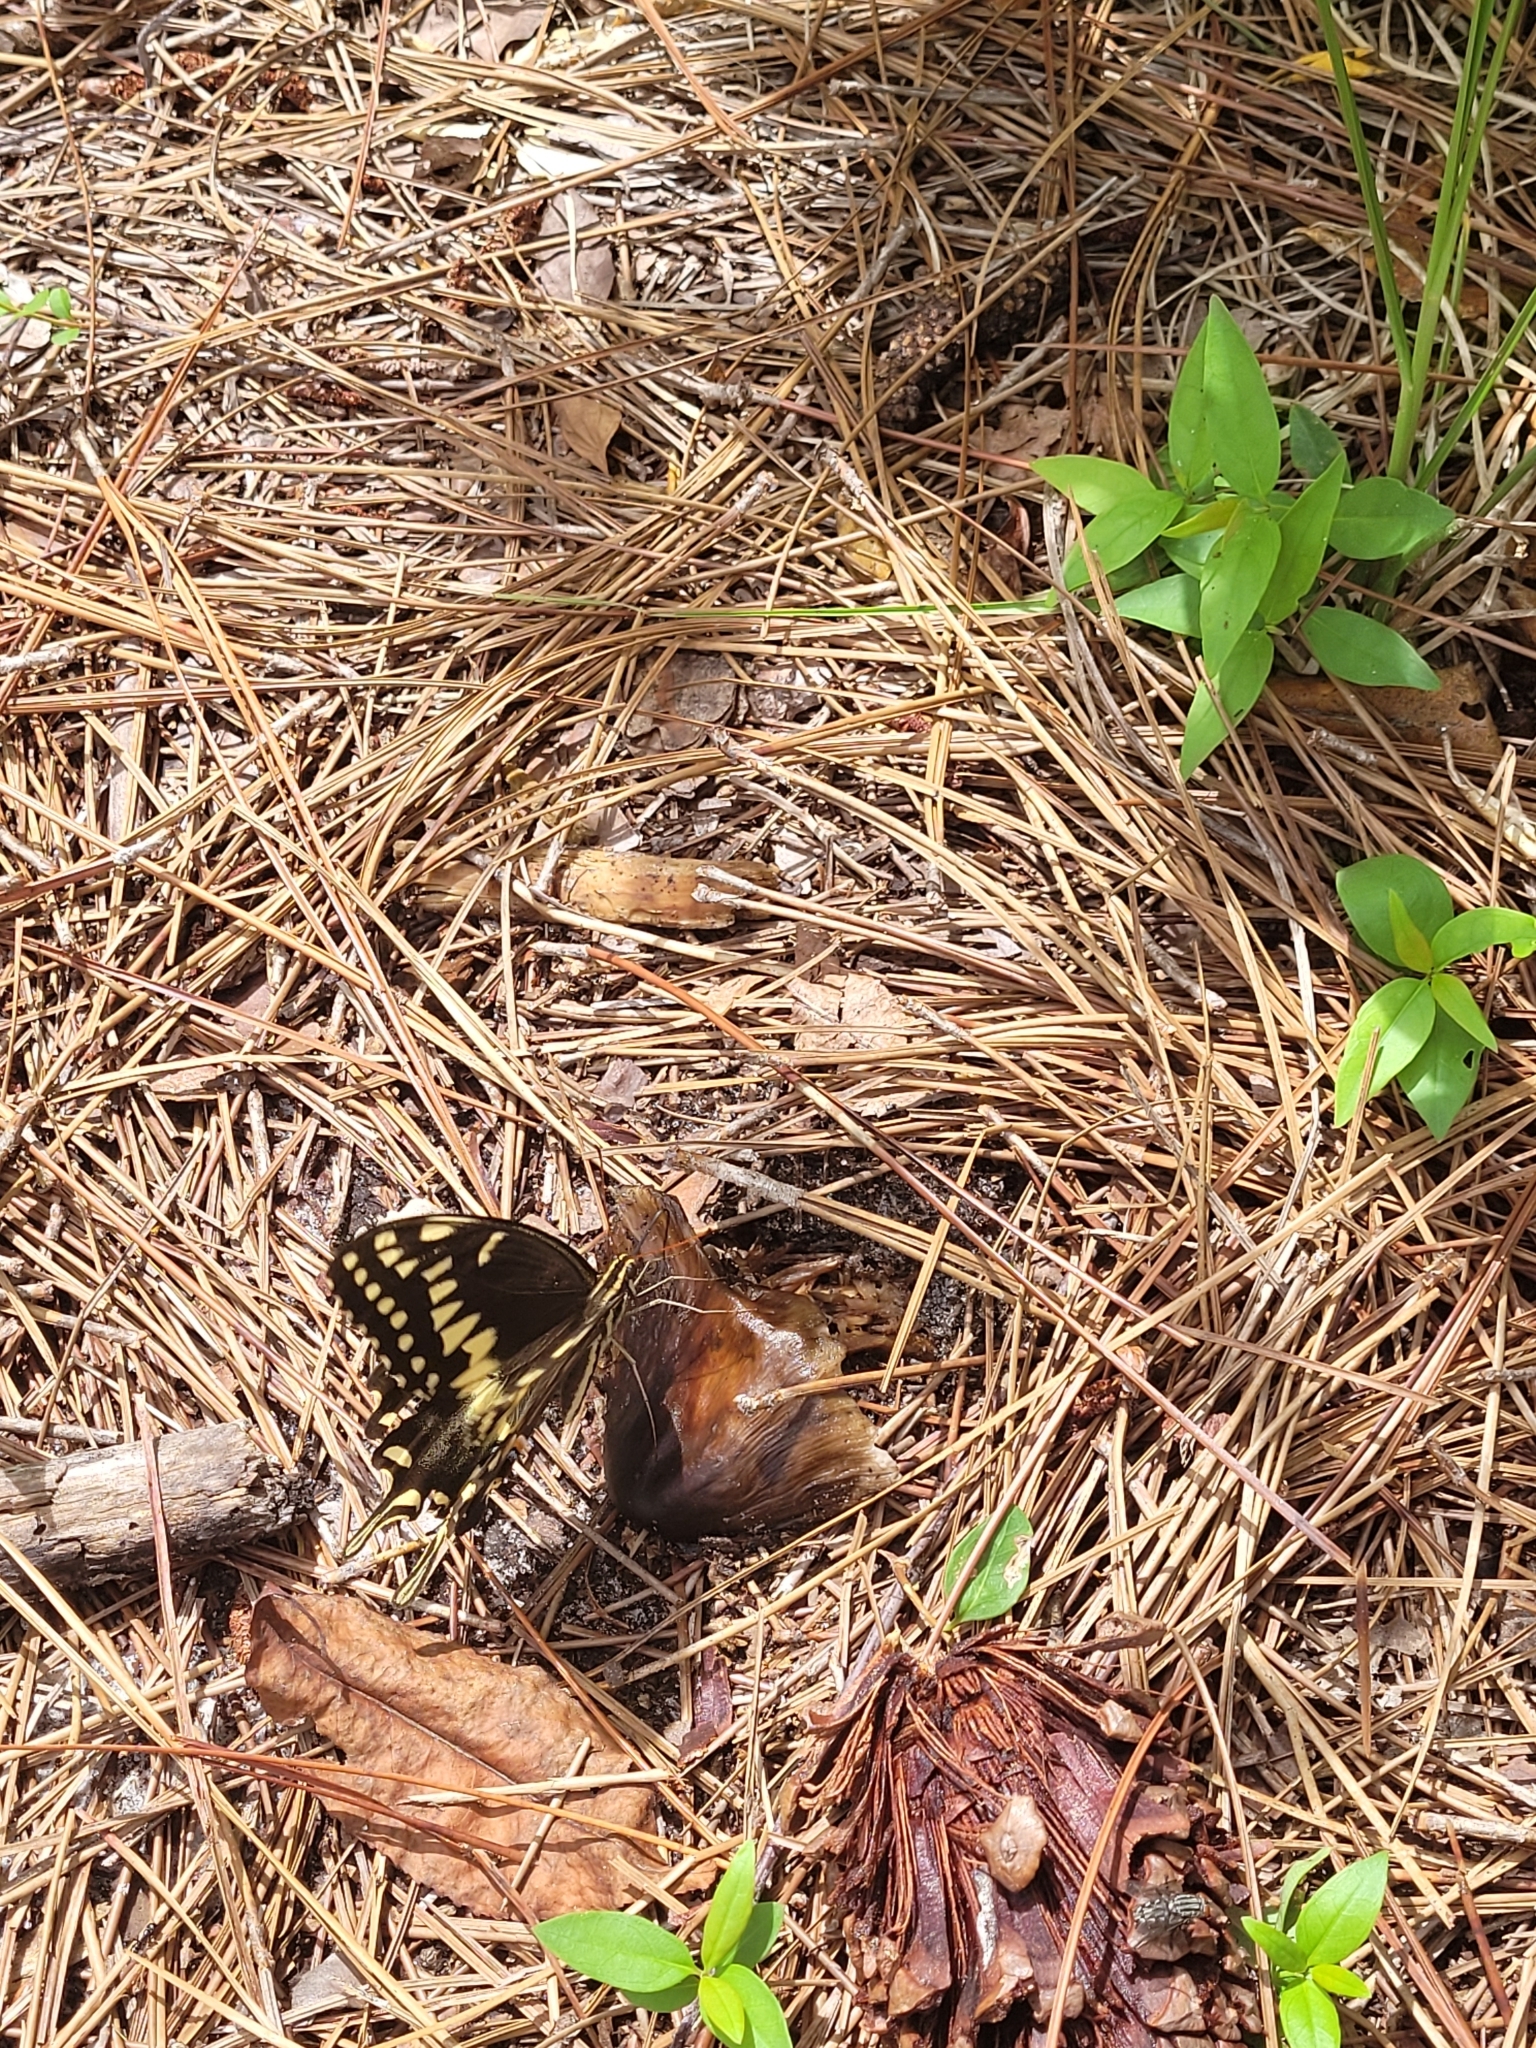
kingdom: Animalia
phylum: Arthropoda
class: Insecta
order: Lepidoptera
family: Papilionidae
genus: Papilio
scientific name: Papilio palamedes
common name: Palamedes swallowtail
